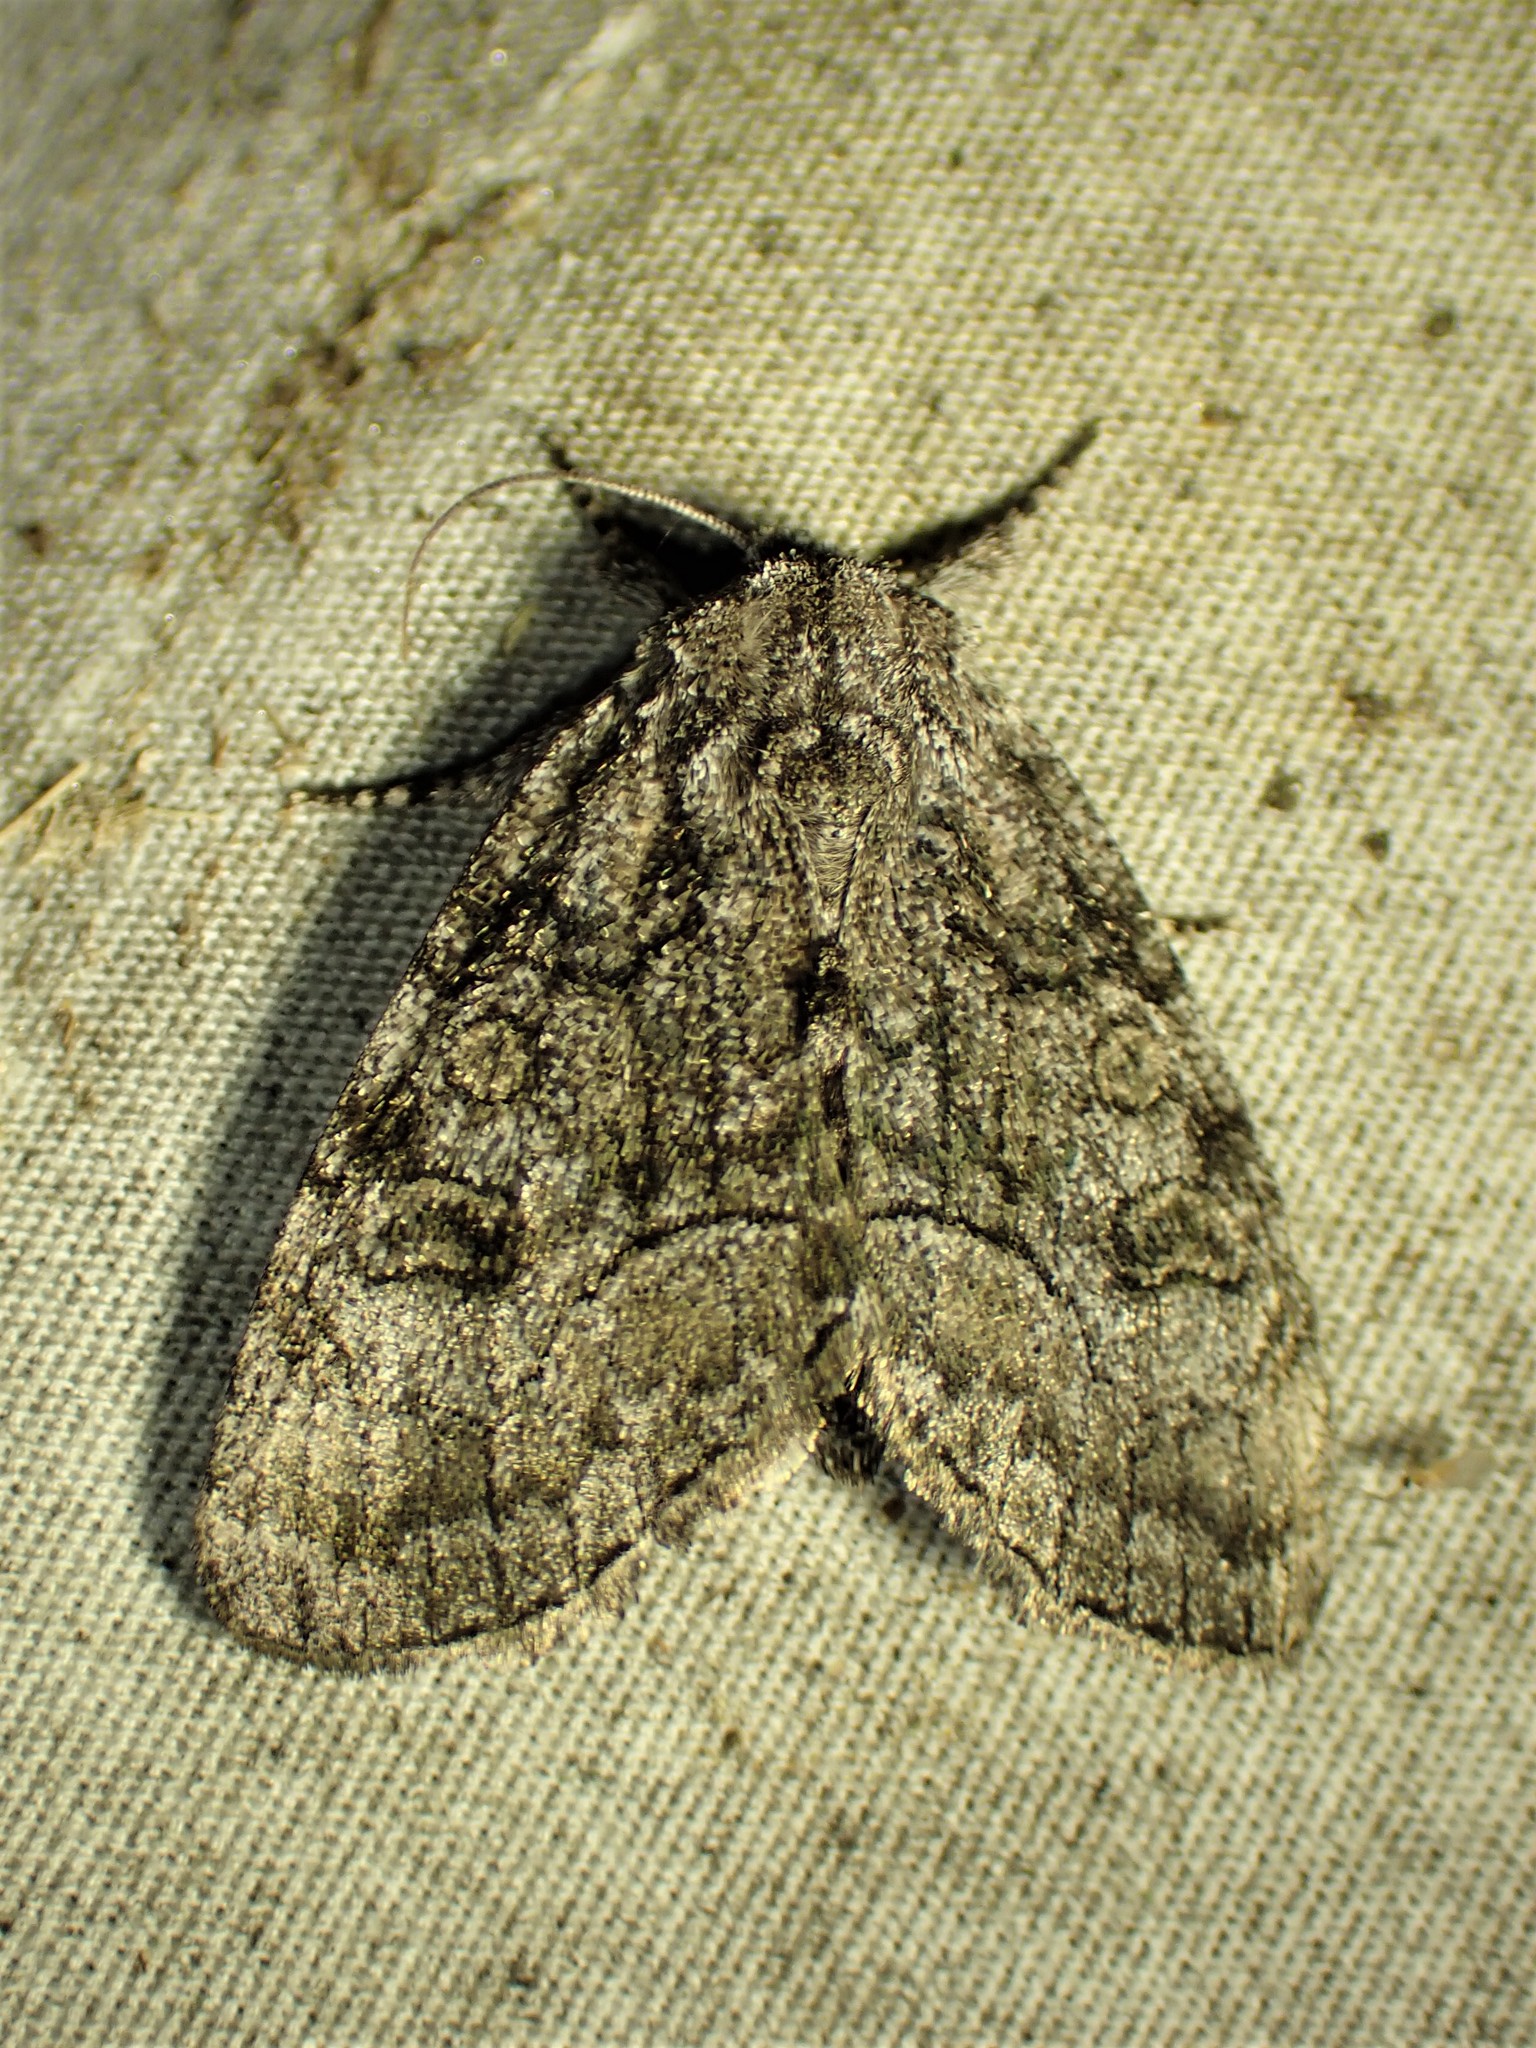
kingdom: Animalia
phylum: Arthropoda
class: Insecta
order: Lepidoptera
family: Noctuidae
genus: Raphia
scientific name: Raphia frater
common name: Brother
